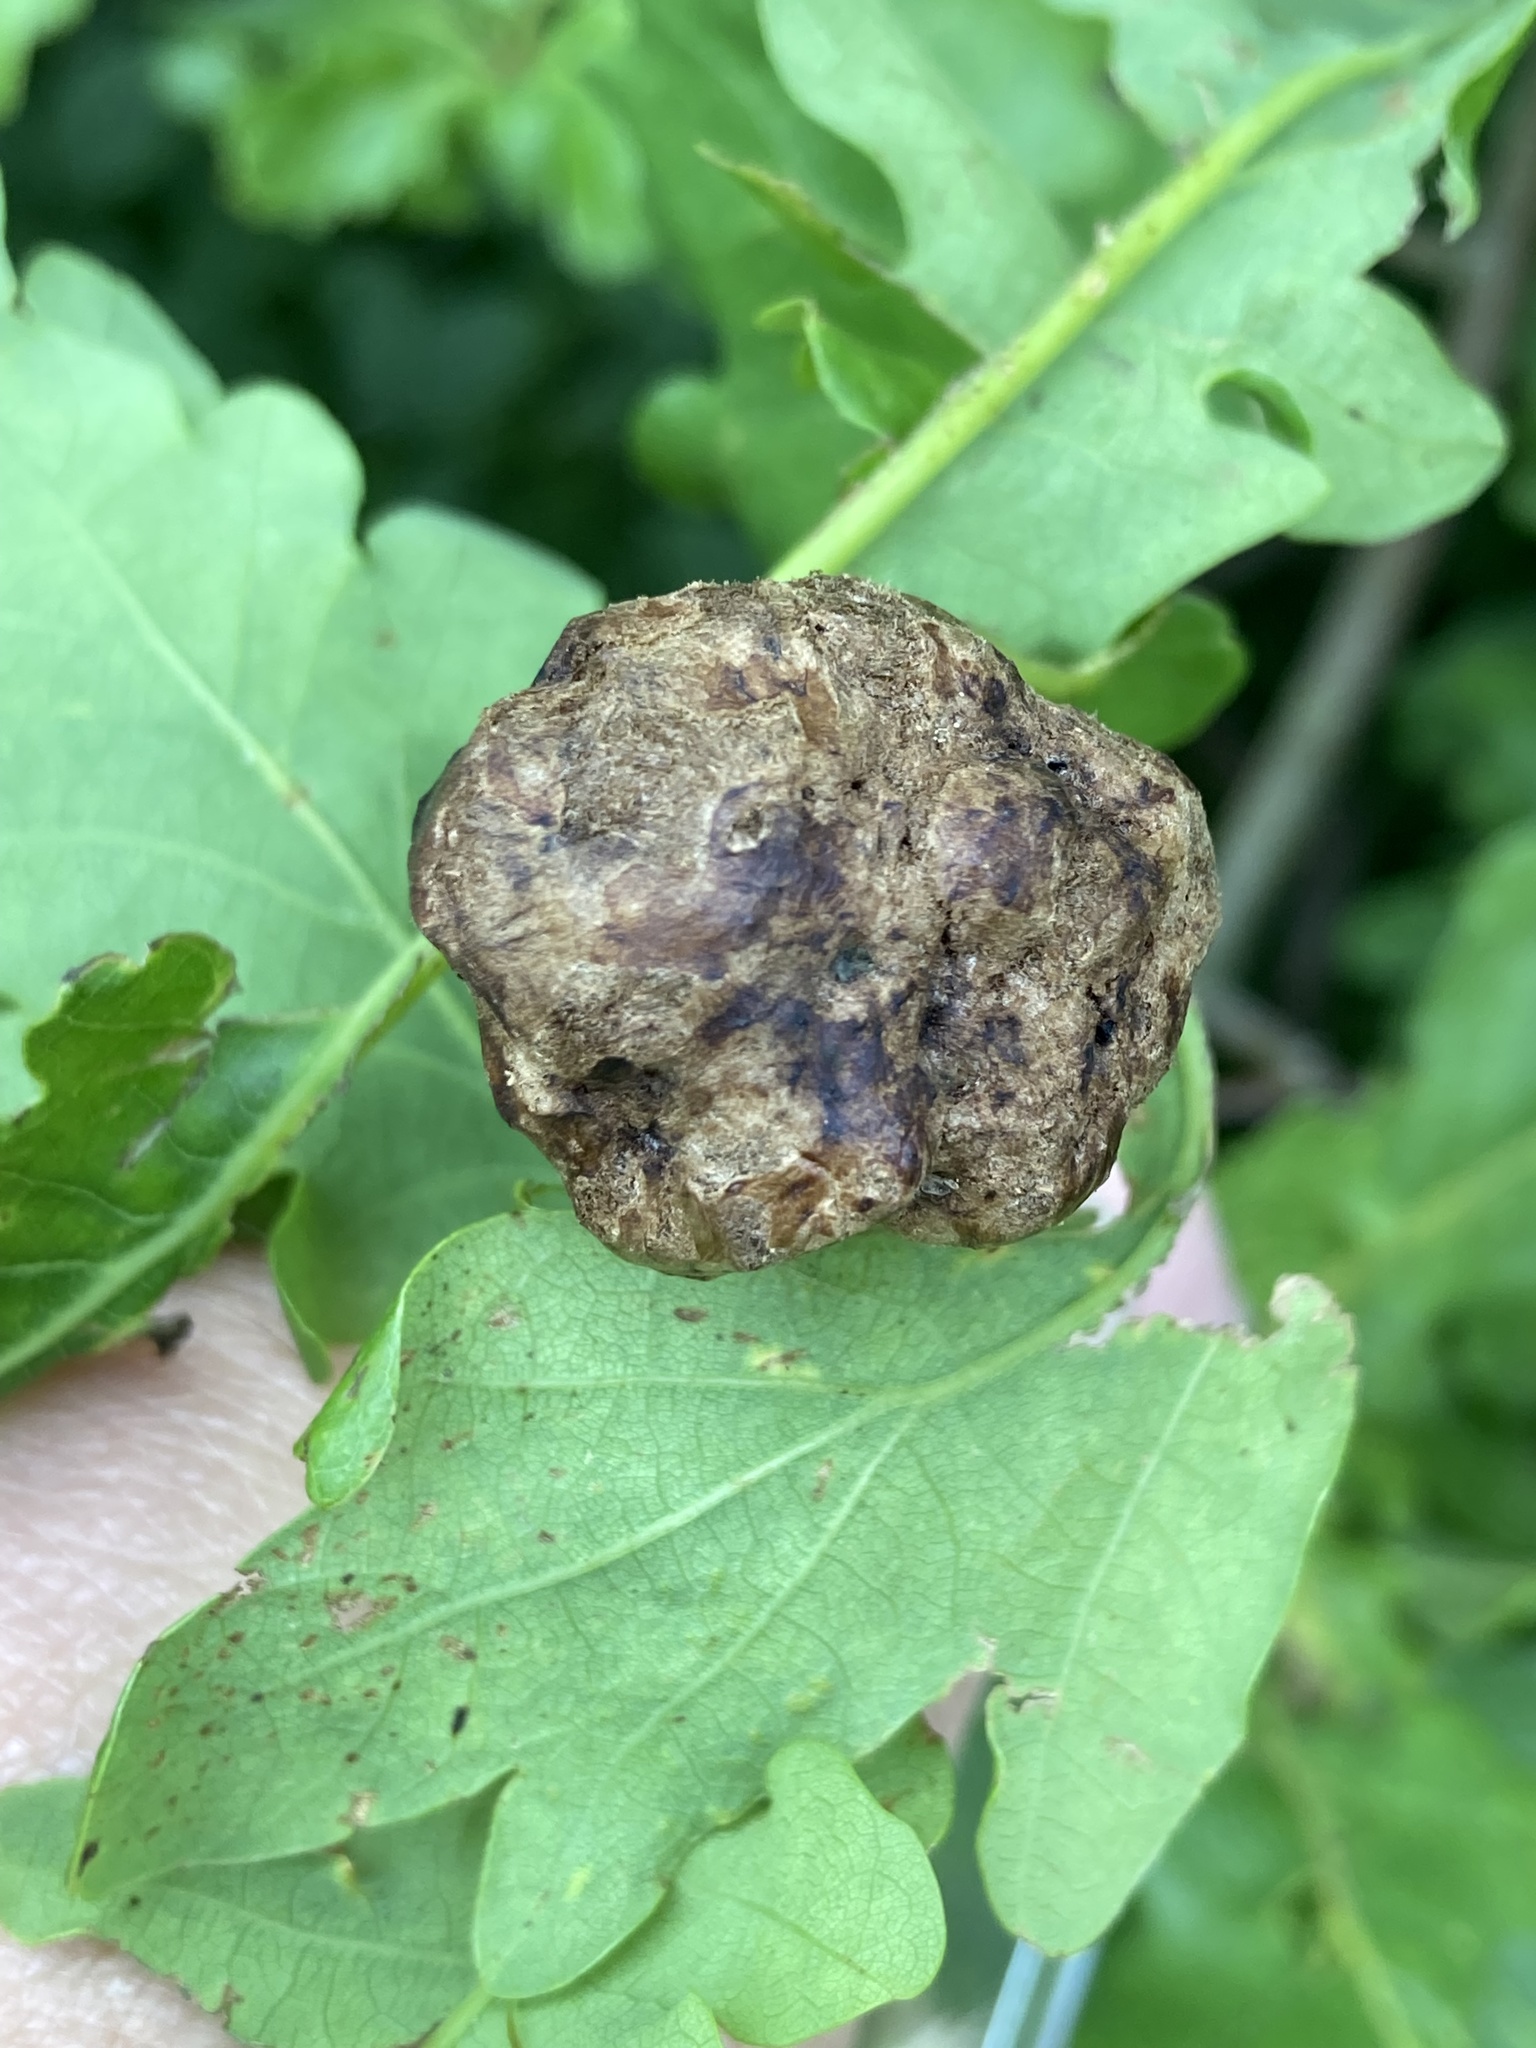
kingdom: Animalia
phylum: Arthropoda
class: Insecta
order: Hymenoptera
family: Cynipidae
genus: Biorhiza
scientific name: Biorhiza pallida
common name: Oak apple
